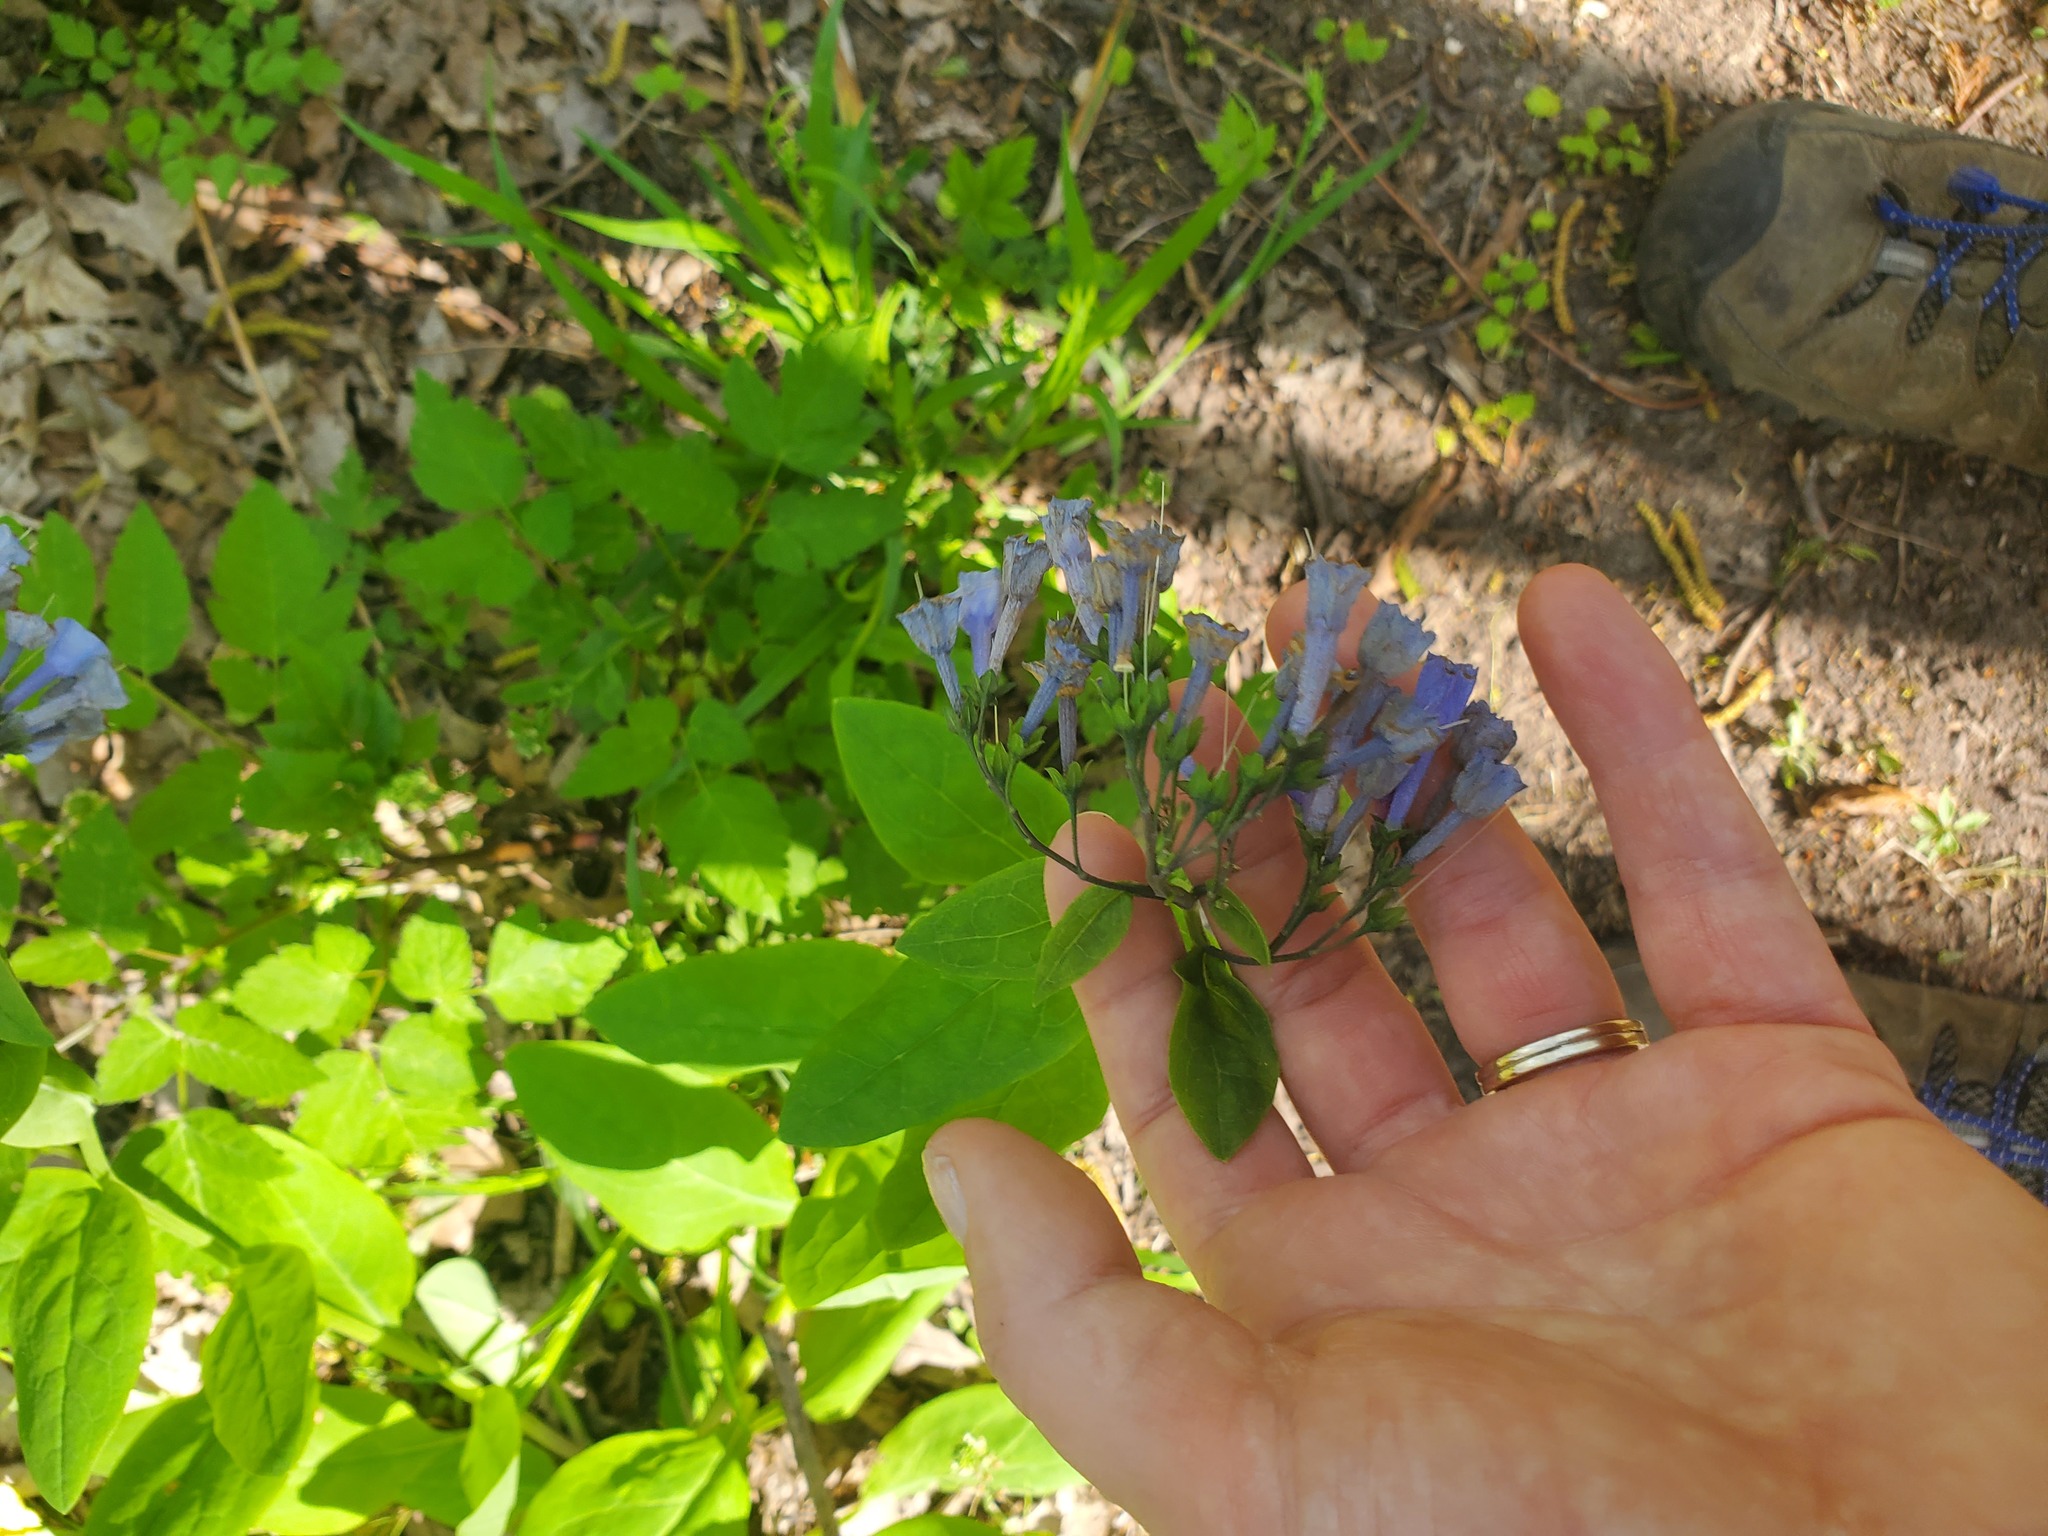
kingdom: Plantae
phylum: Tracheophyta
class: Magnoliopsida
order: Boraginales
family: Boraginaceae
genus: Mertensia
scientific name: Mertensia virginica
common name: Virginia bluebells
